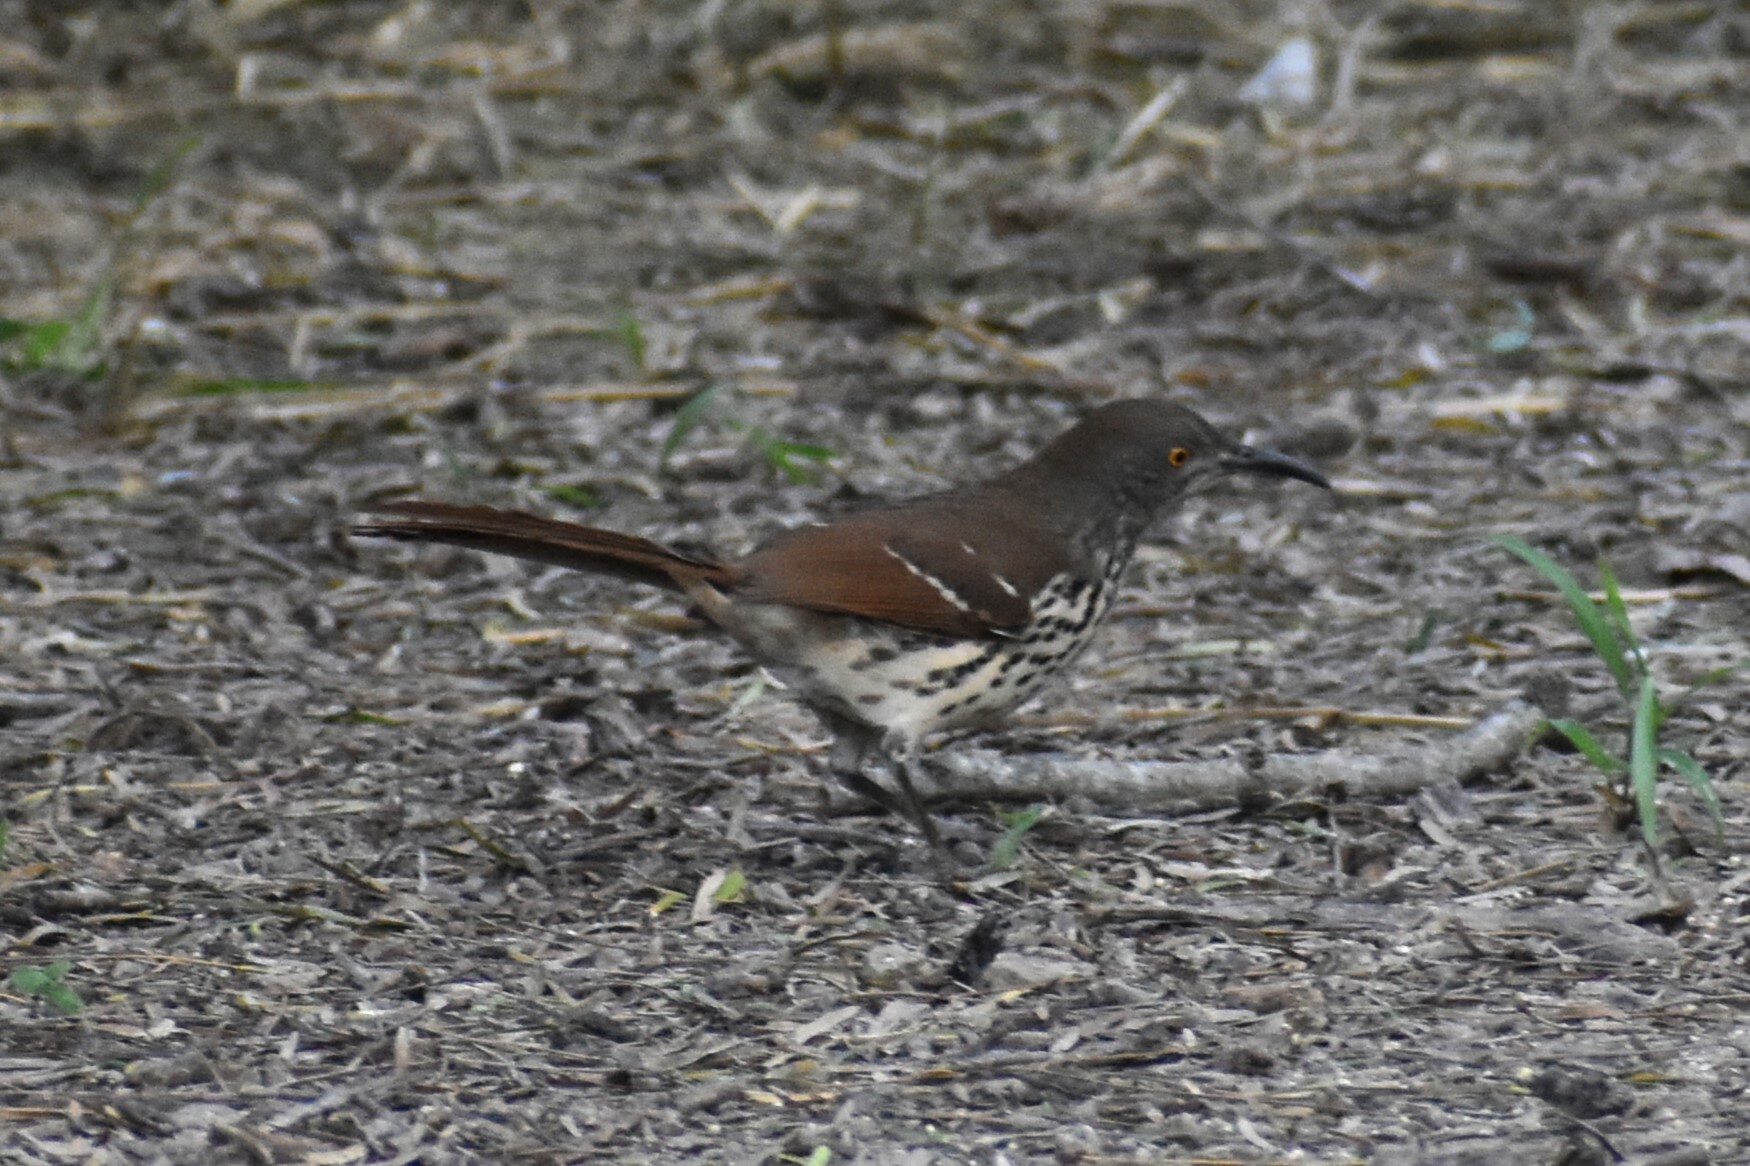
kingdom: Animalia
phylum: Chordata
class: Aves
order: Passeriformes
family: Mimidae
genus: Toxostoma
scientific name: Toxostoma longirostre
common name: Long-billed thrasher
